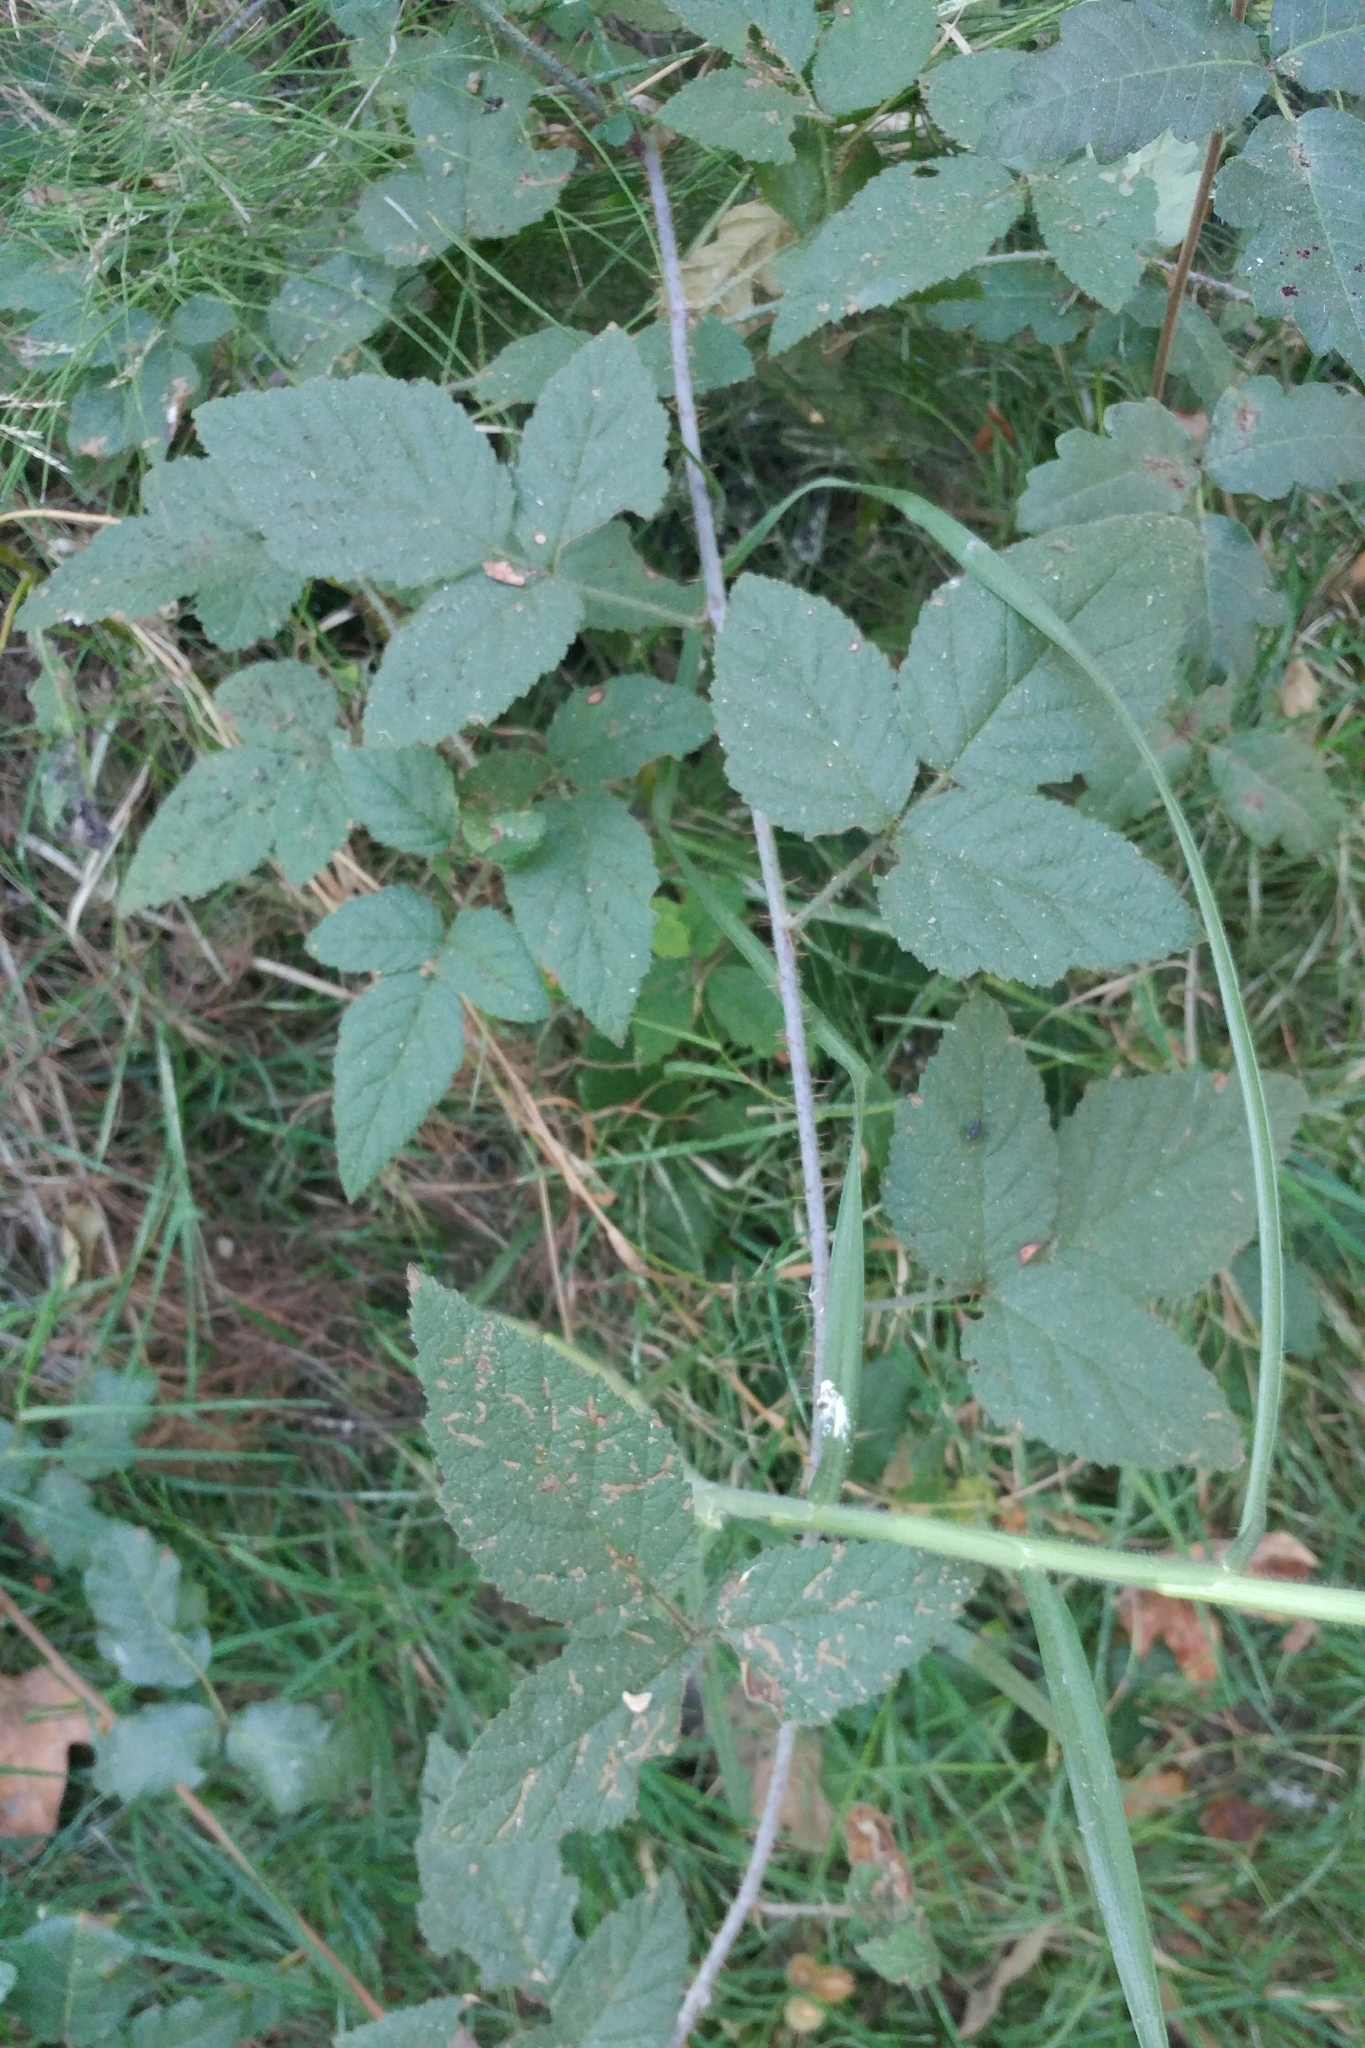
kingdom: Plantae
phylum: Tracheophyta
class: Magnoliopsida
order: Rosales
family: Rosaceae
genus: Rubus
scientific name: Rubus ursinus
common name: Pacific blackberry
